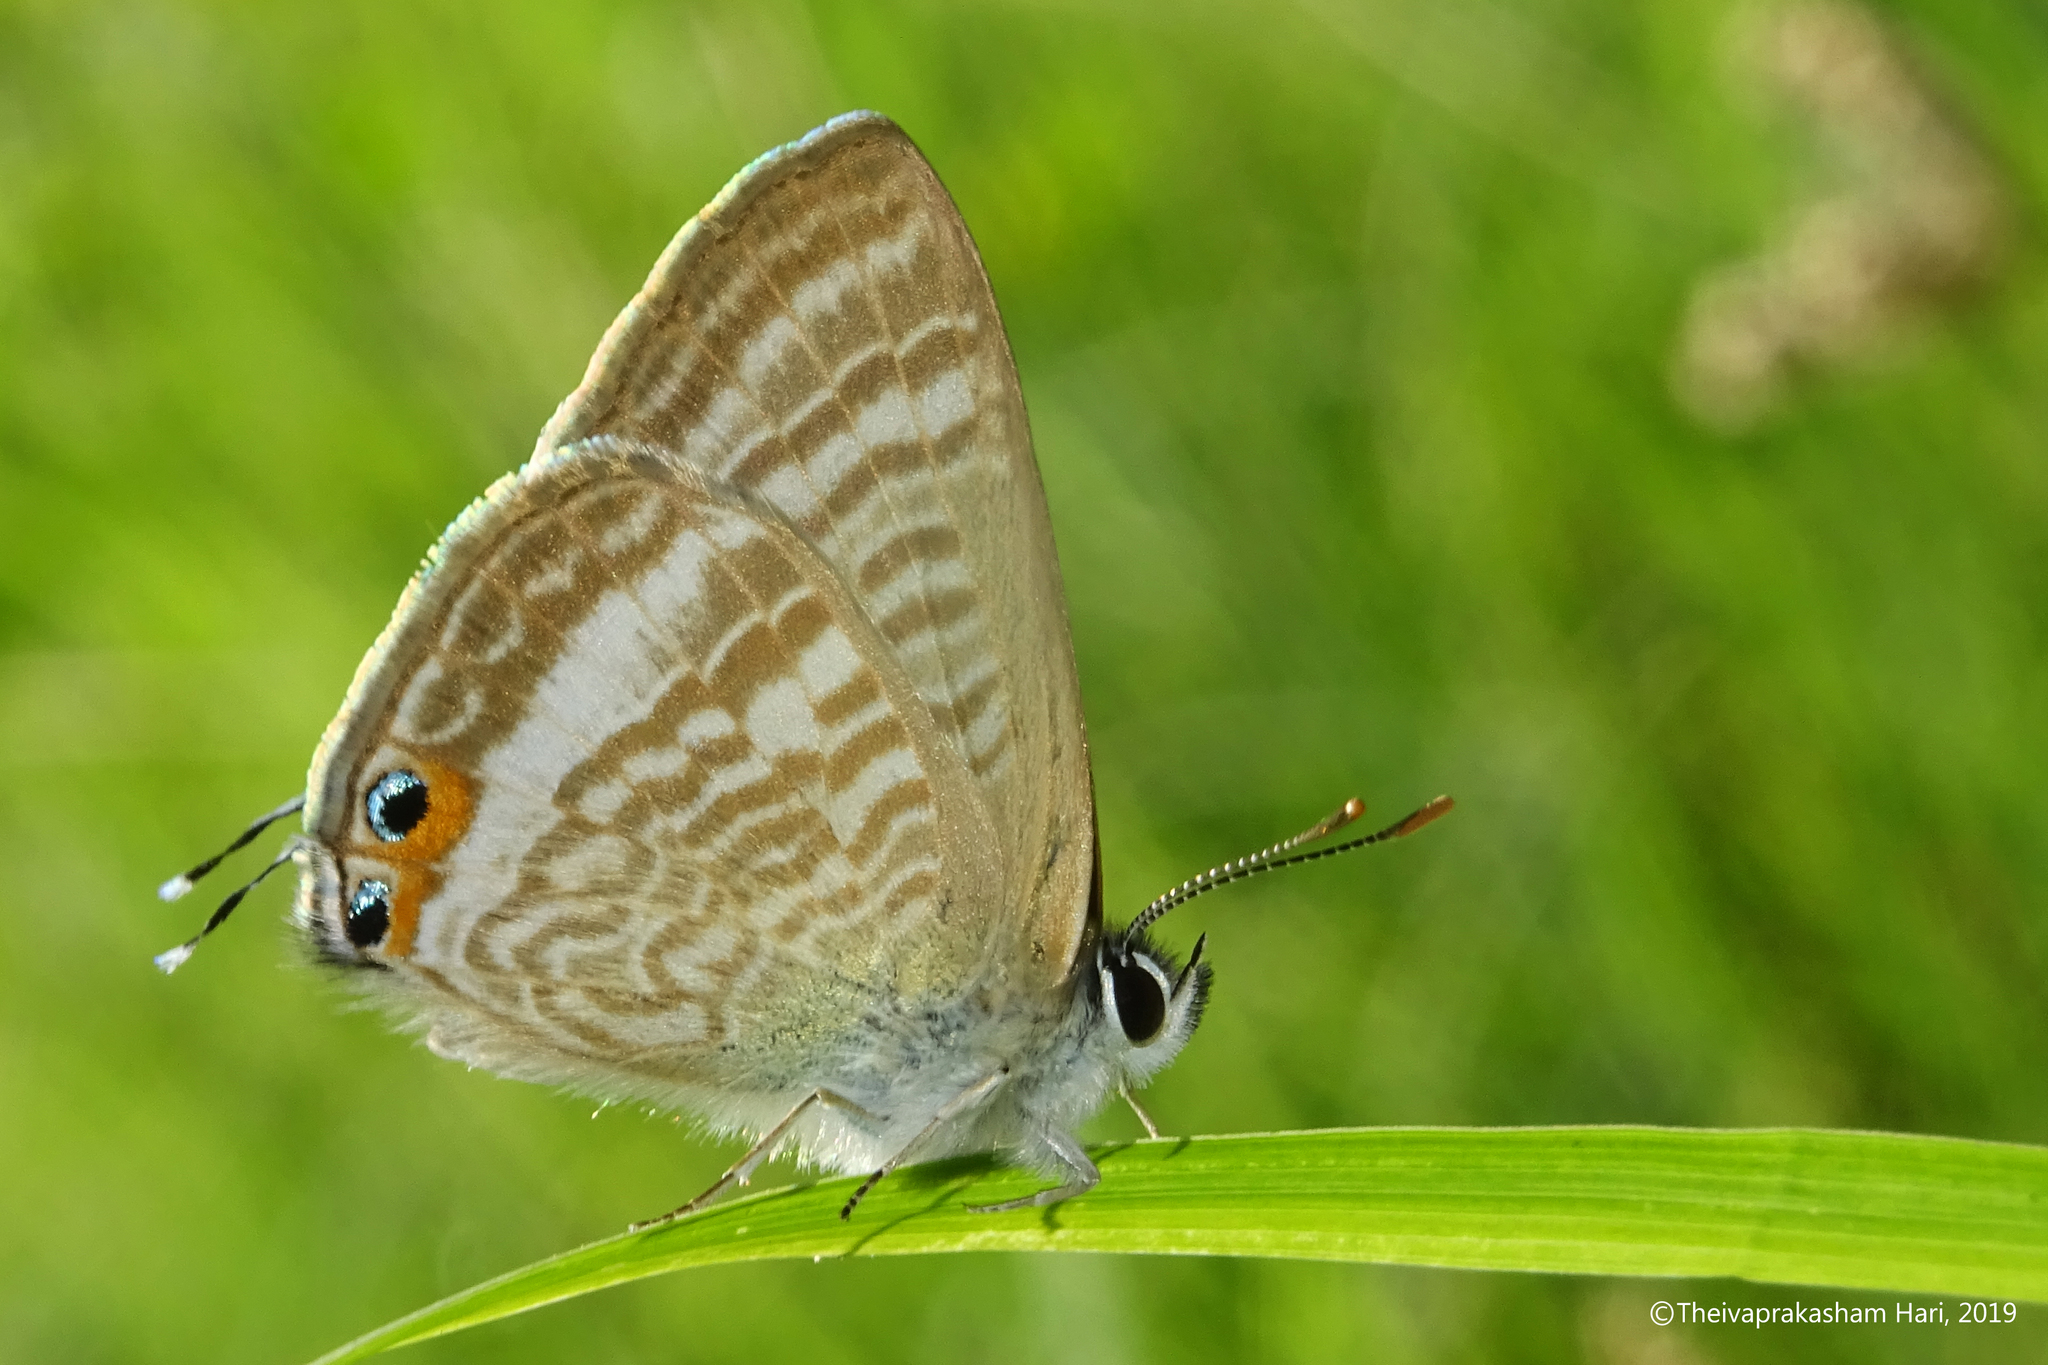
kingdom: Animalia
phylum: Arthropoda
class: Insecta
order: Lepidoptera
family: Lycaenidae
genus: Lampides
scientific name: Lampides boeticus
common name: Long-tailed blue
